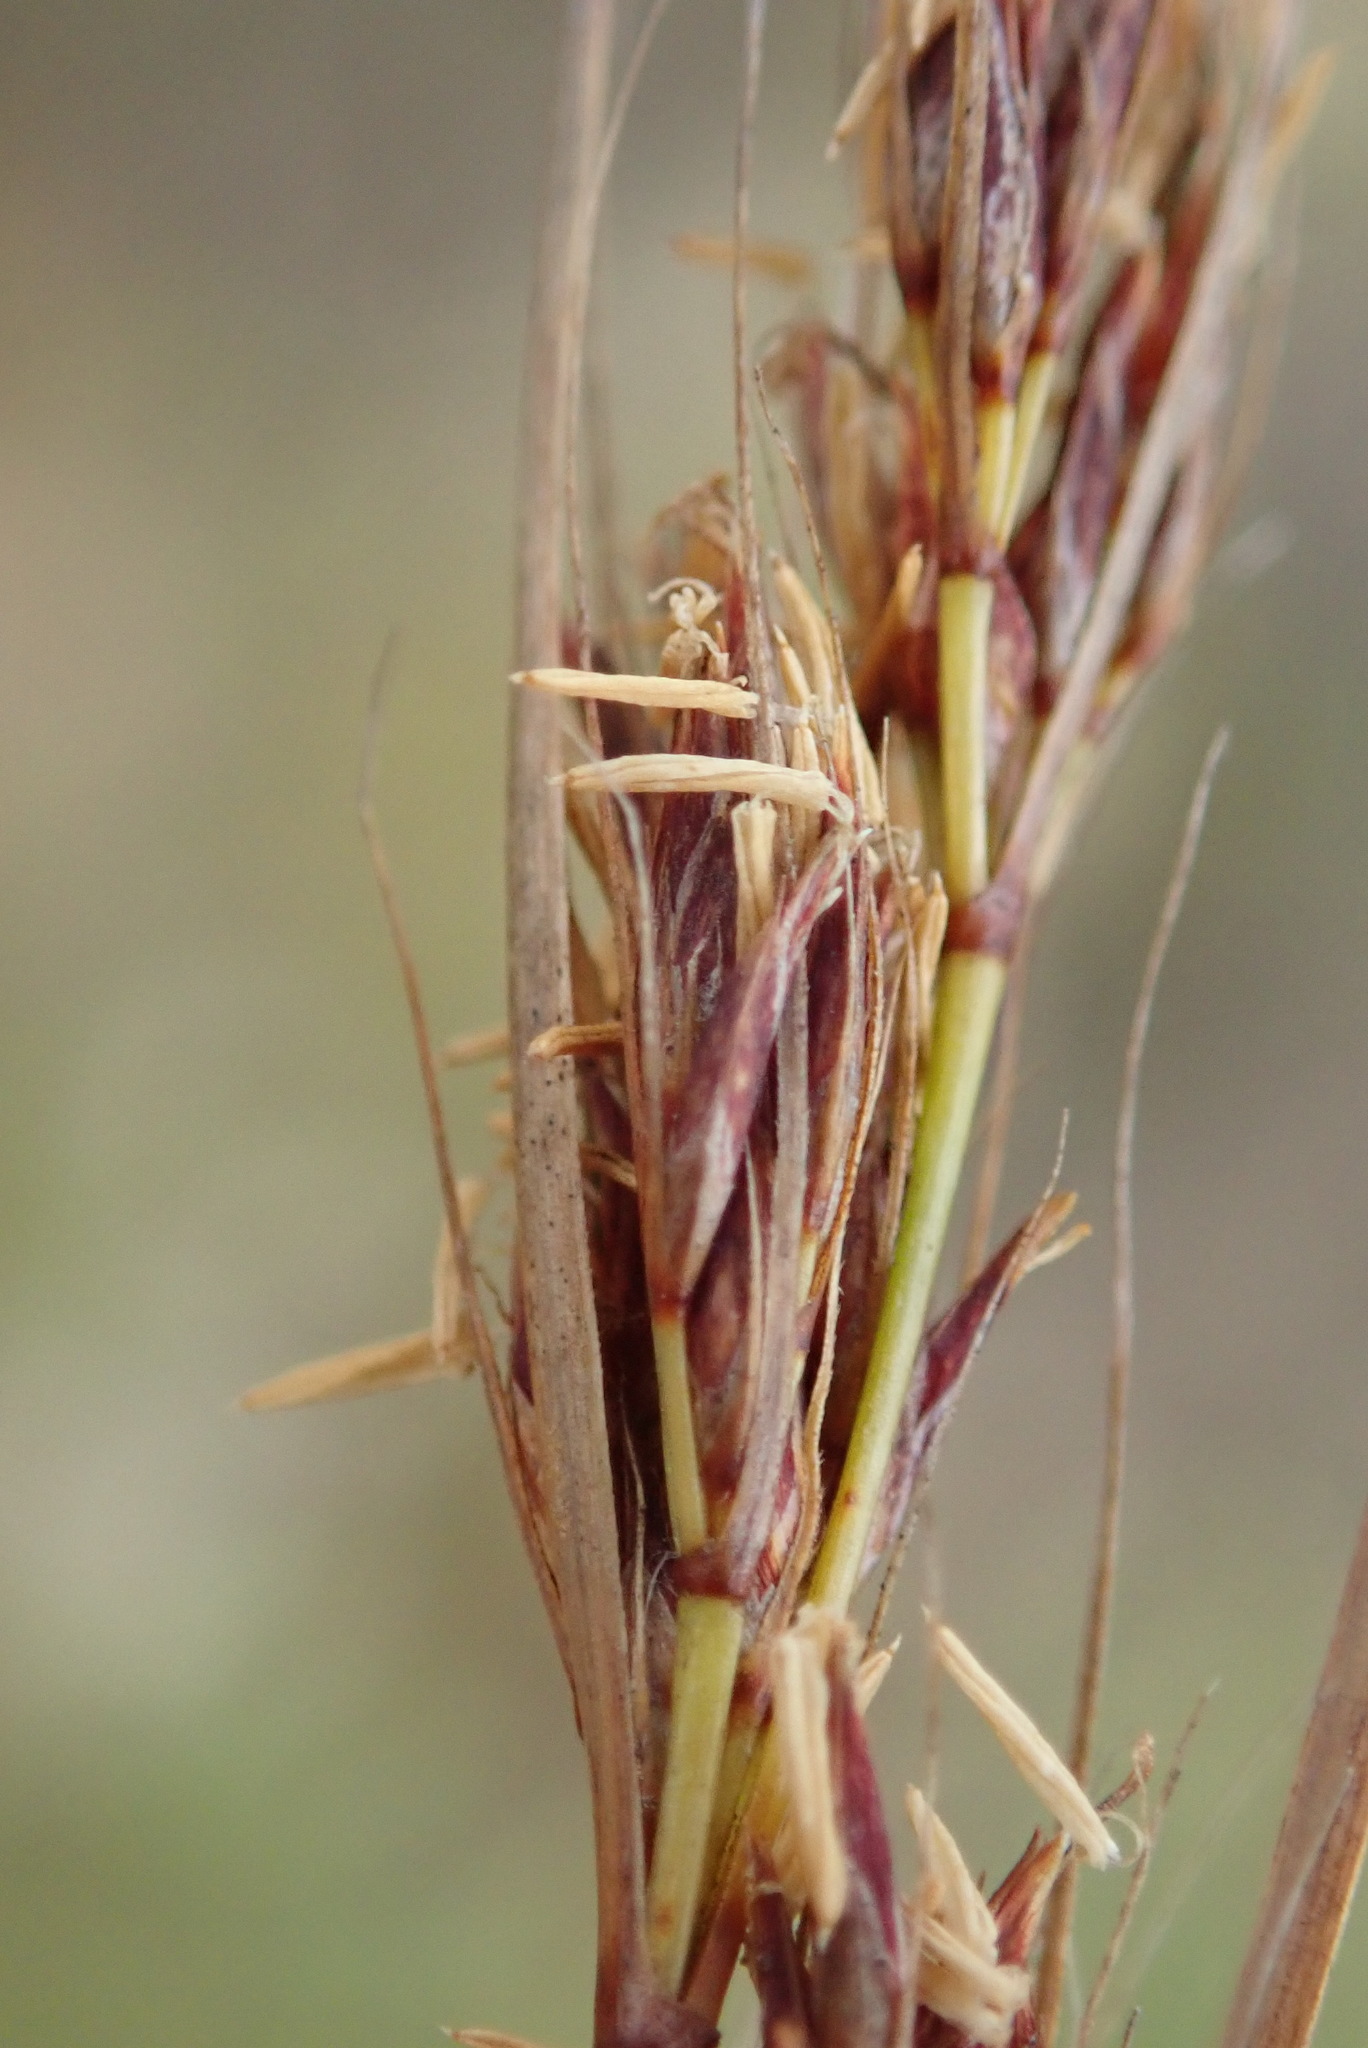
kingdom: Plantae
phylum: Tracheophyta
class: Liliopsida
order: Poales
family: Cyperaceae
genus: Schoenus
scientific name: Schoenus graciliculmis
